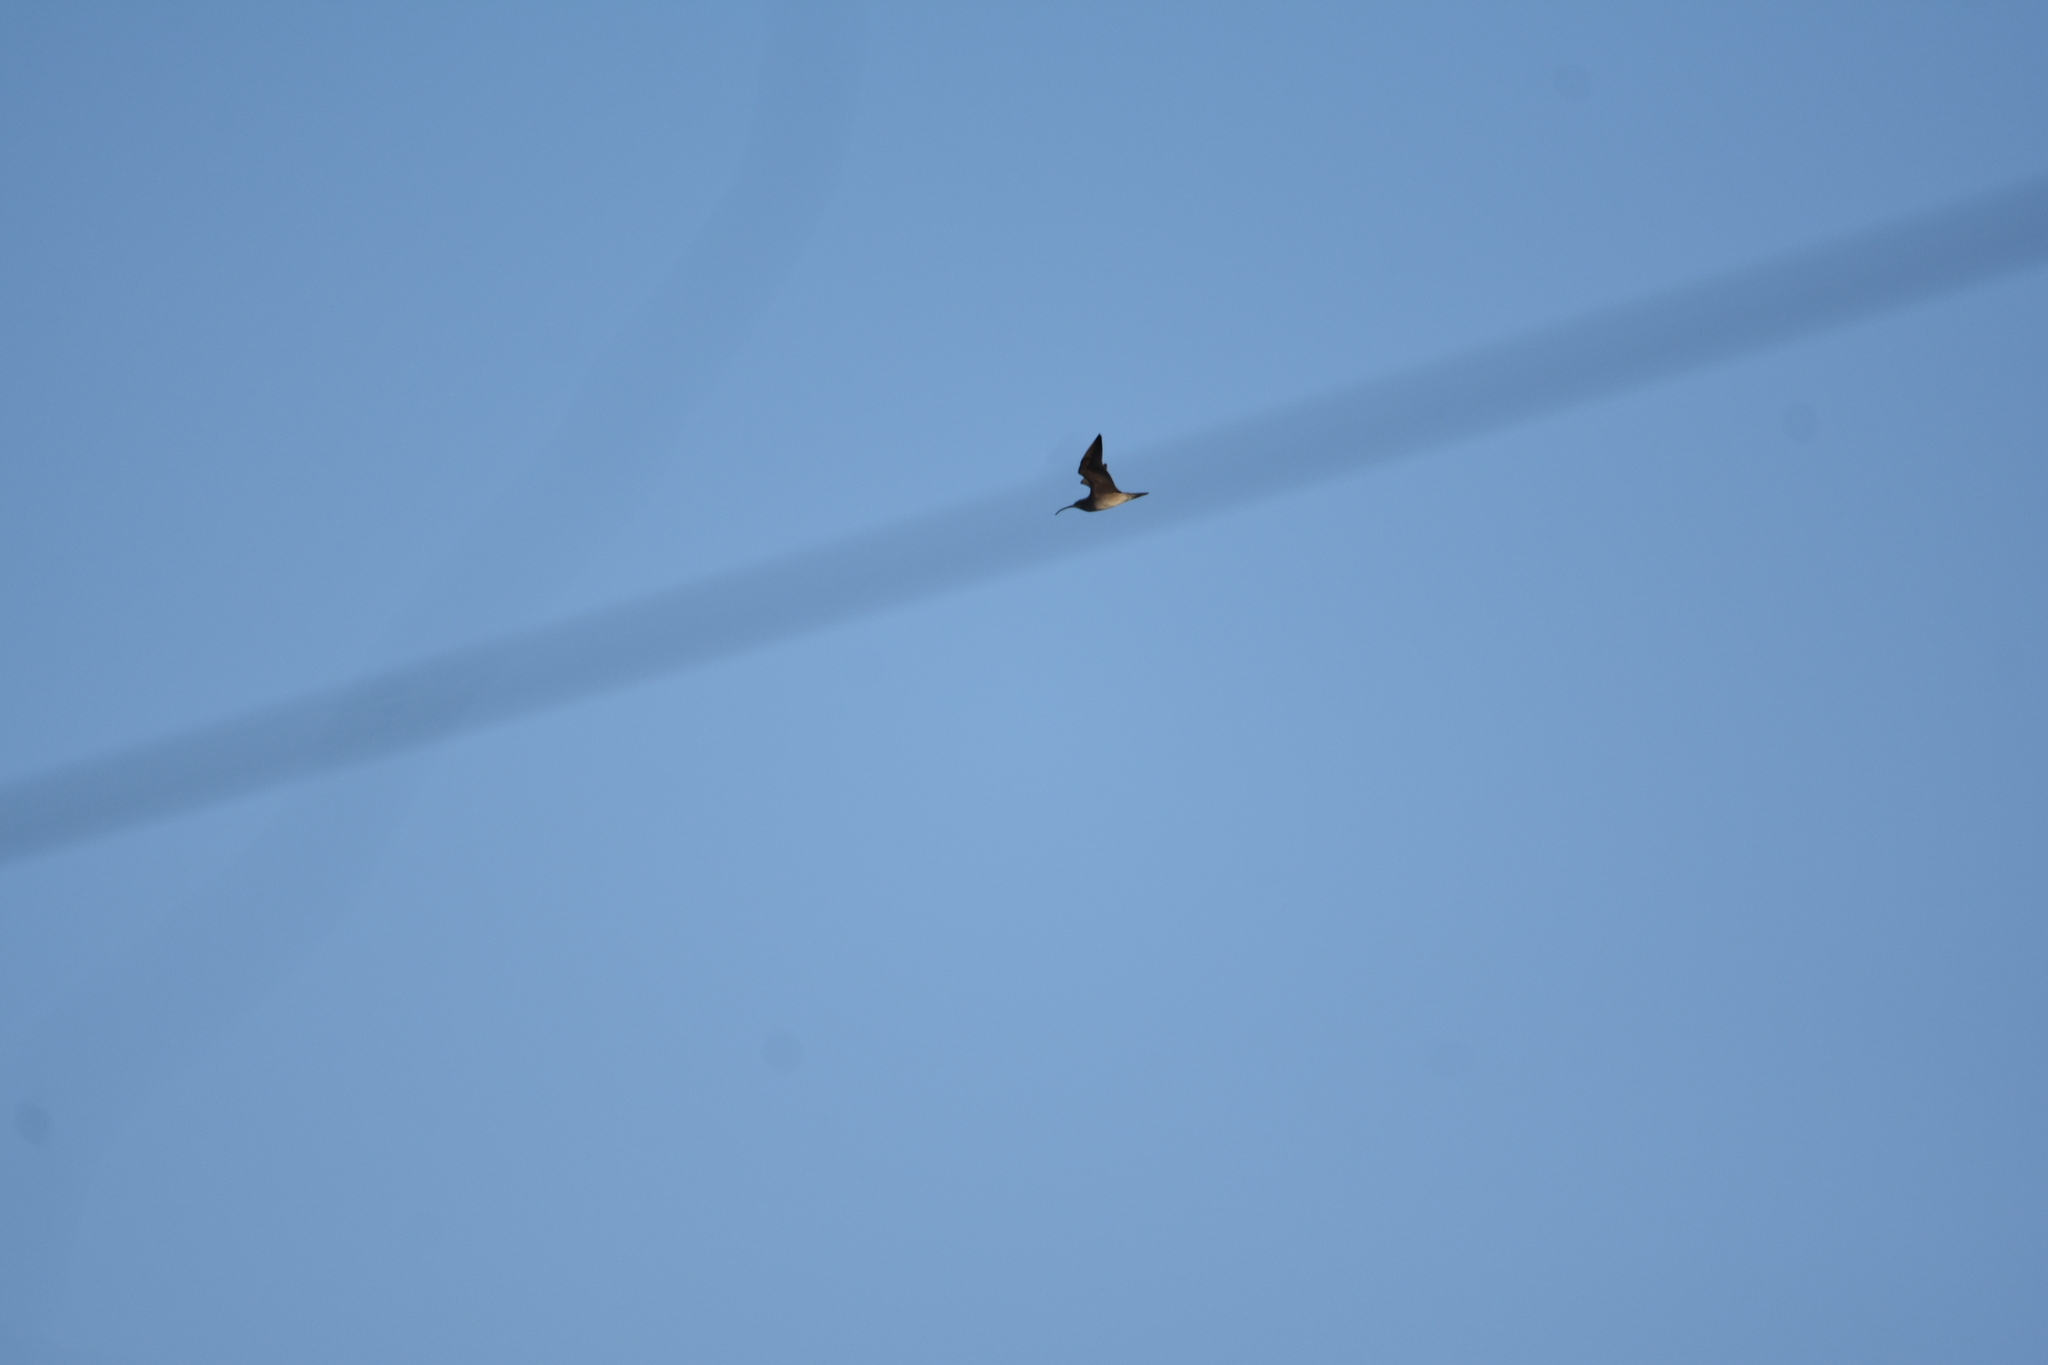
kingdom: Animalia
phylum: Chordata
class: Aves
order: Charadriiformes
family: Scolopacidae
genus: Numenius
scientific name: Numenius phaeopus
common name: Whimbrel
